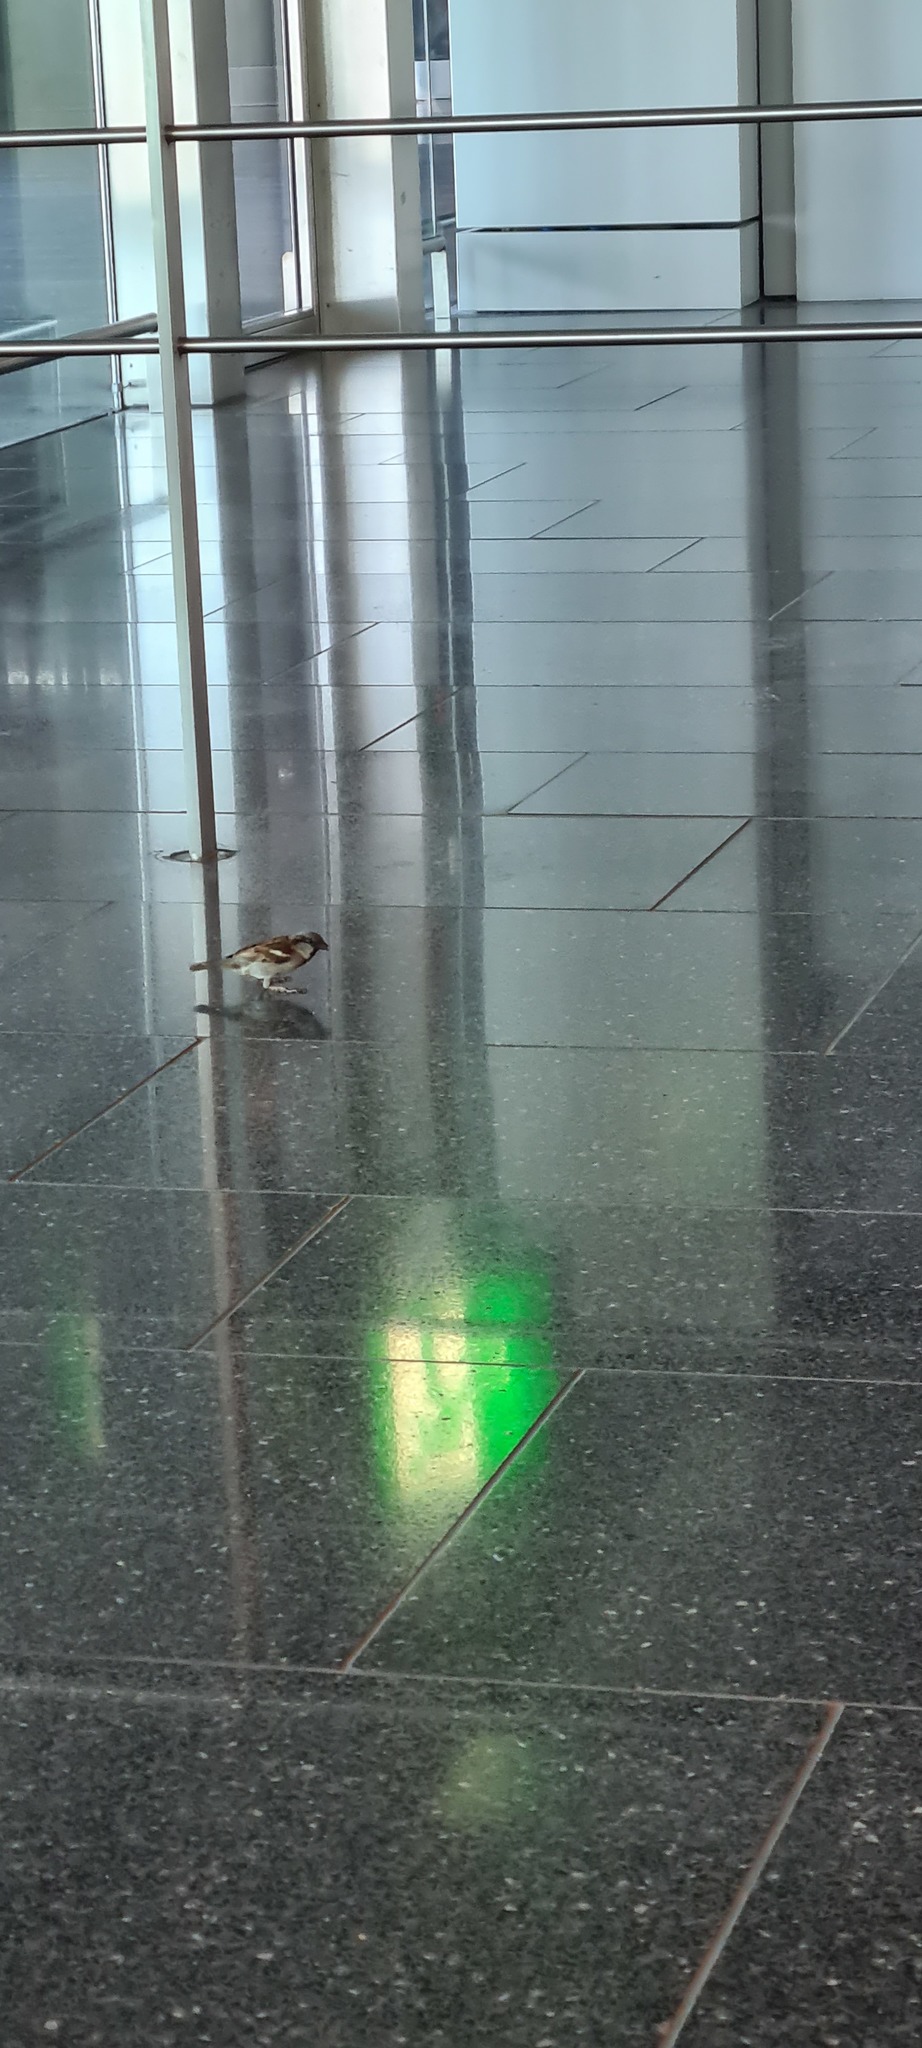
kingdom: Animalia
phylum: Chordata
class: Aves
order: Passeriformes
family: Passeridae
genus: Passer
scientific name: Passer domesticus
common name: House sparrow
